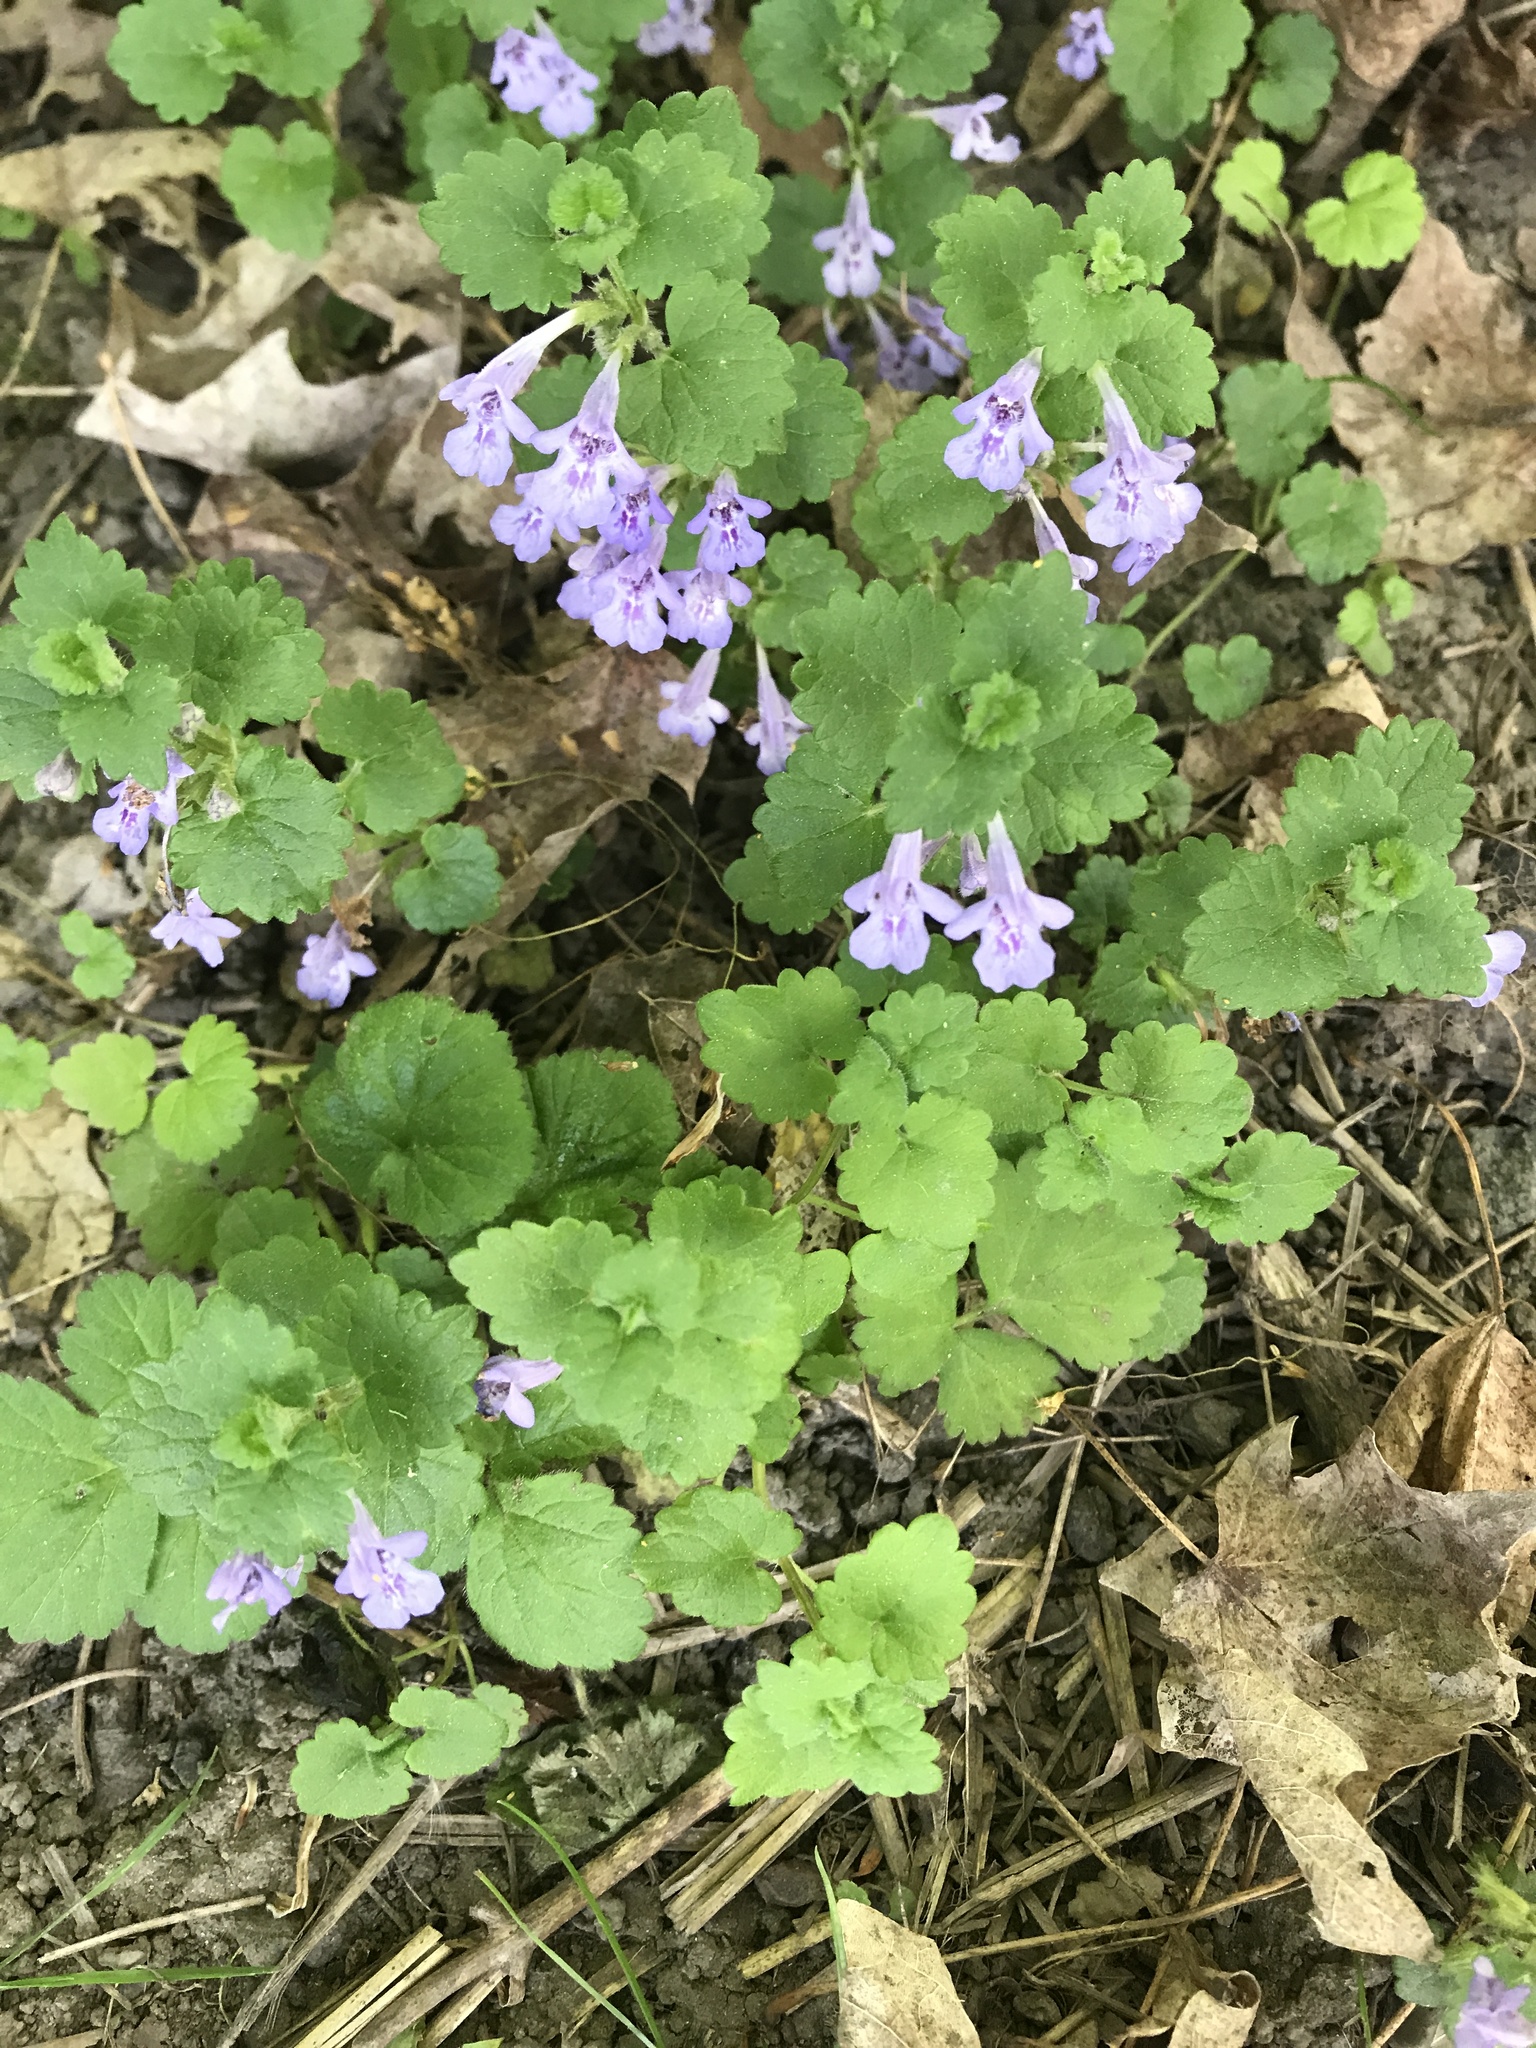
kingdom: Plantae
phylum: Tracheophyta
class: Magnoliopsida
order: Lamiales
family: Lamiaceae
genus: Glechoma
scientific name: Glechoma hederacea
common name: Ground ivy
